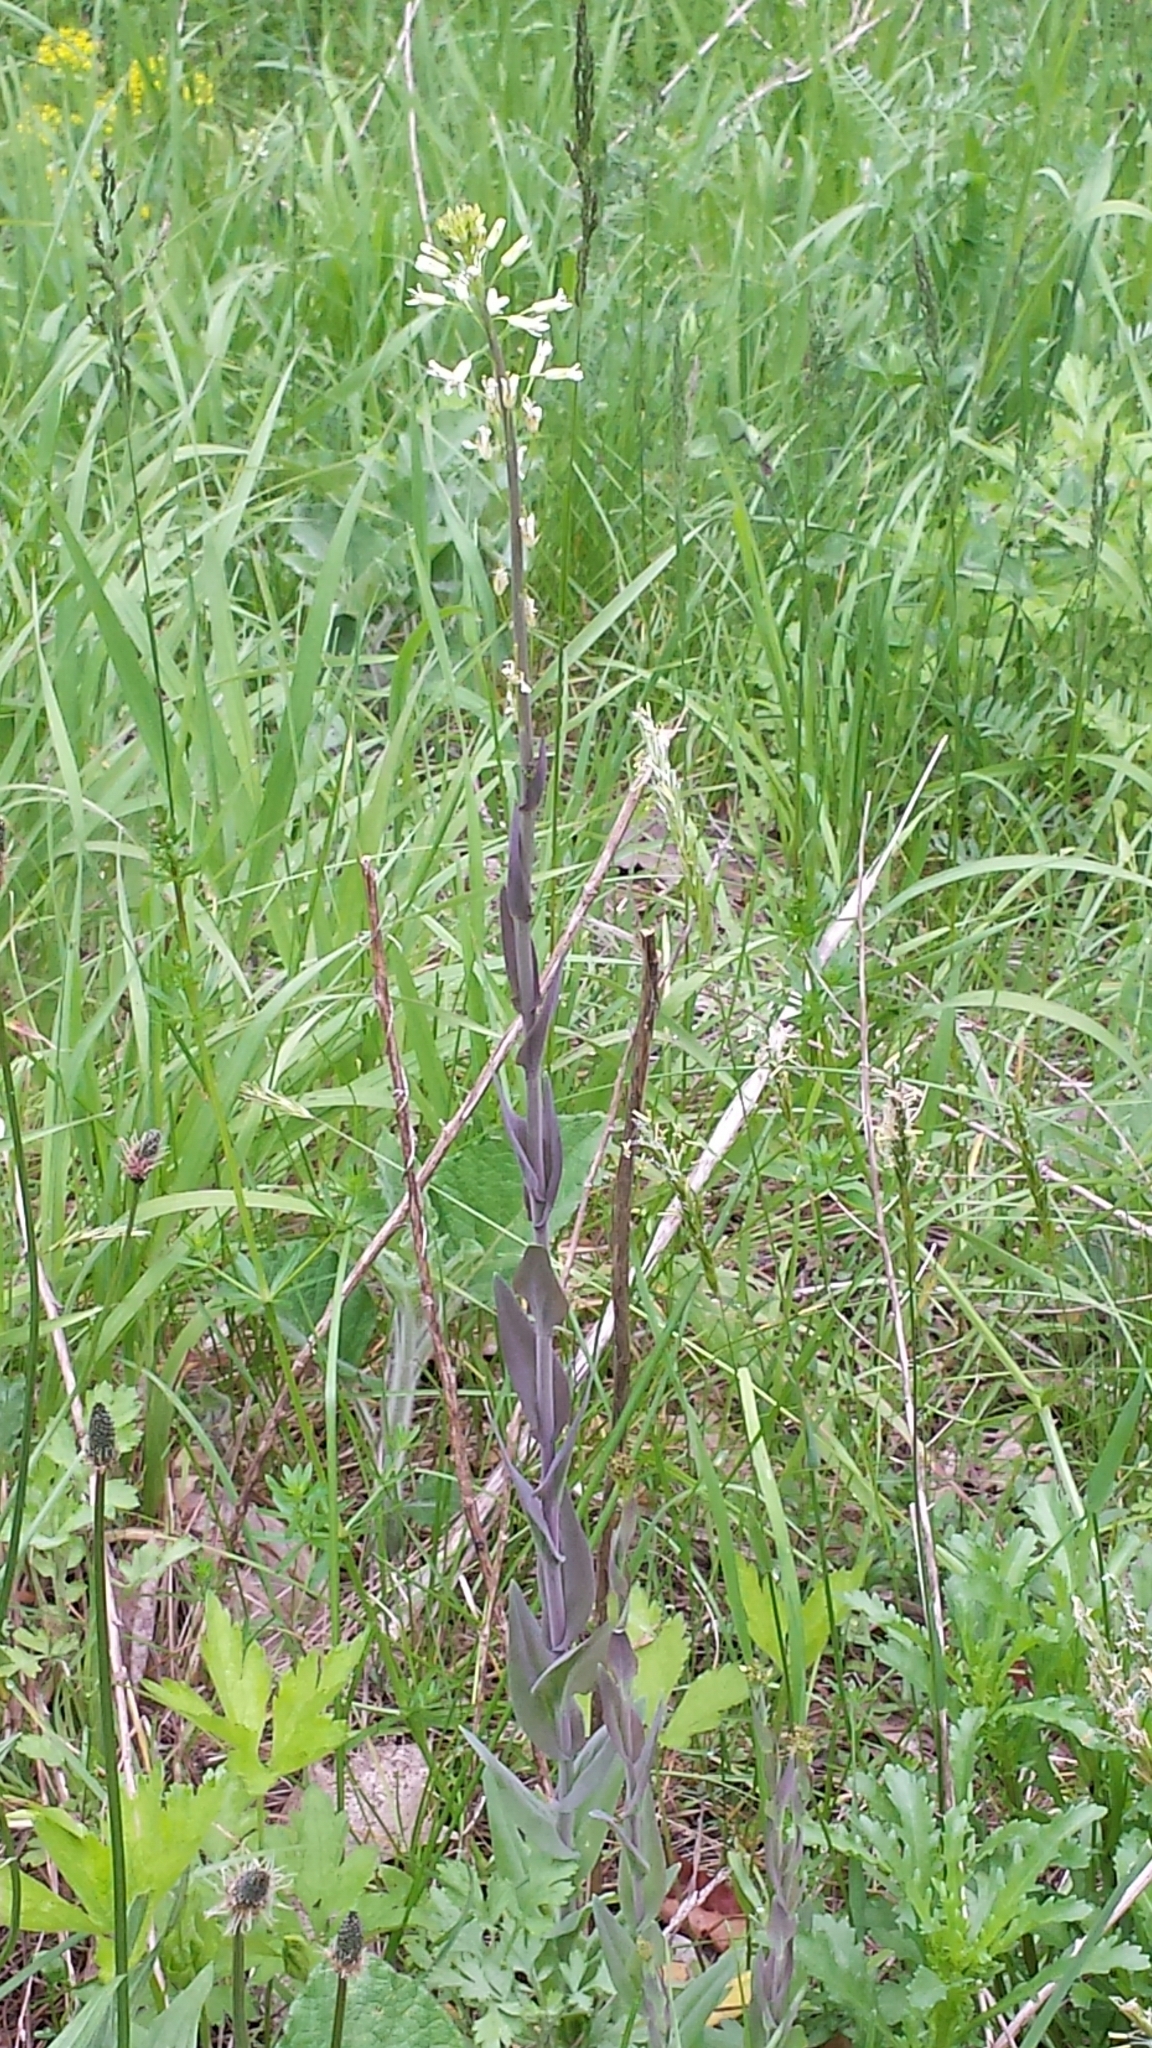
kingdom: Plantae
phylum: Tracheophyta
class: Magnoliopsida
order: Brassicales
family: Brassicaceae
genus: Turritis
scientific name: Turritis glabra
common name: Tower rockcress
